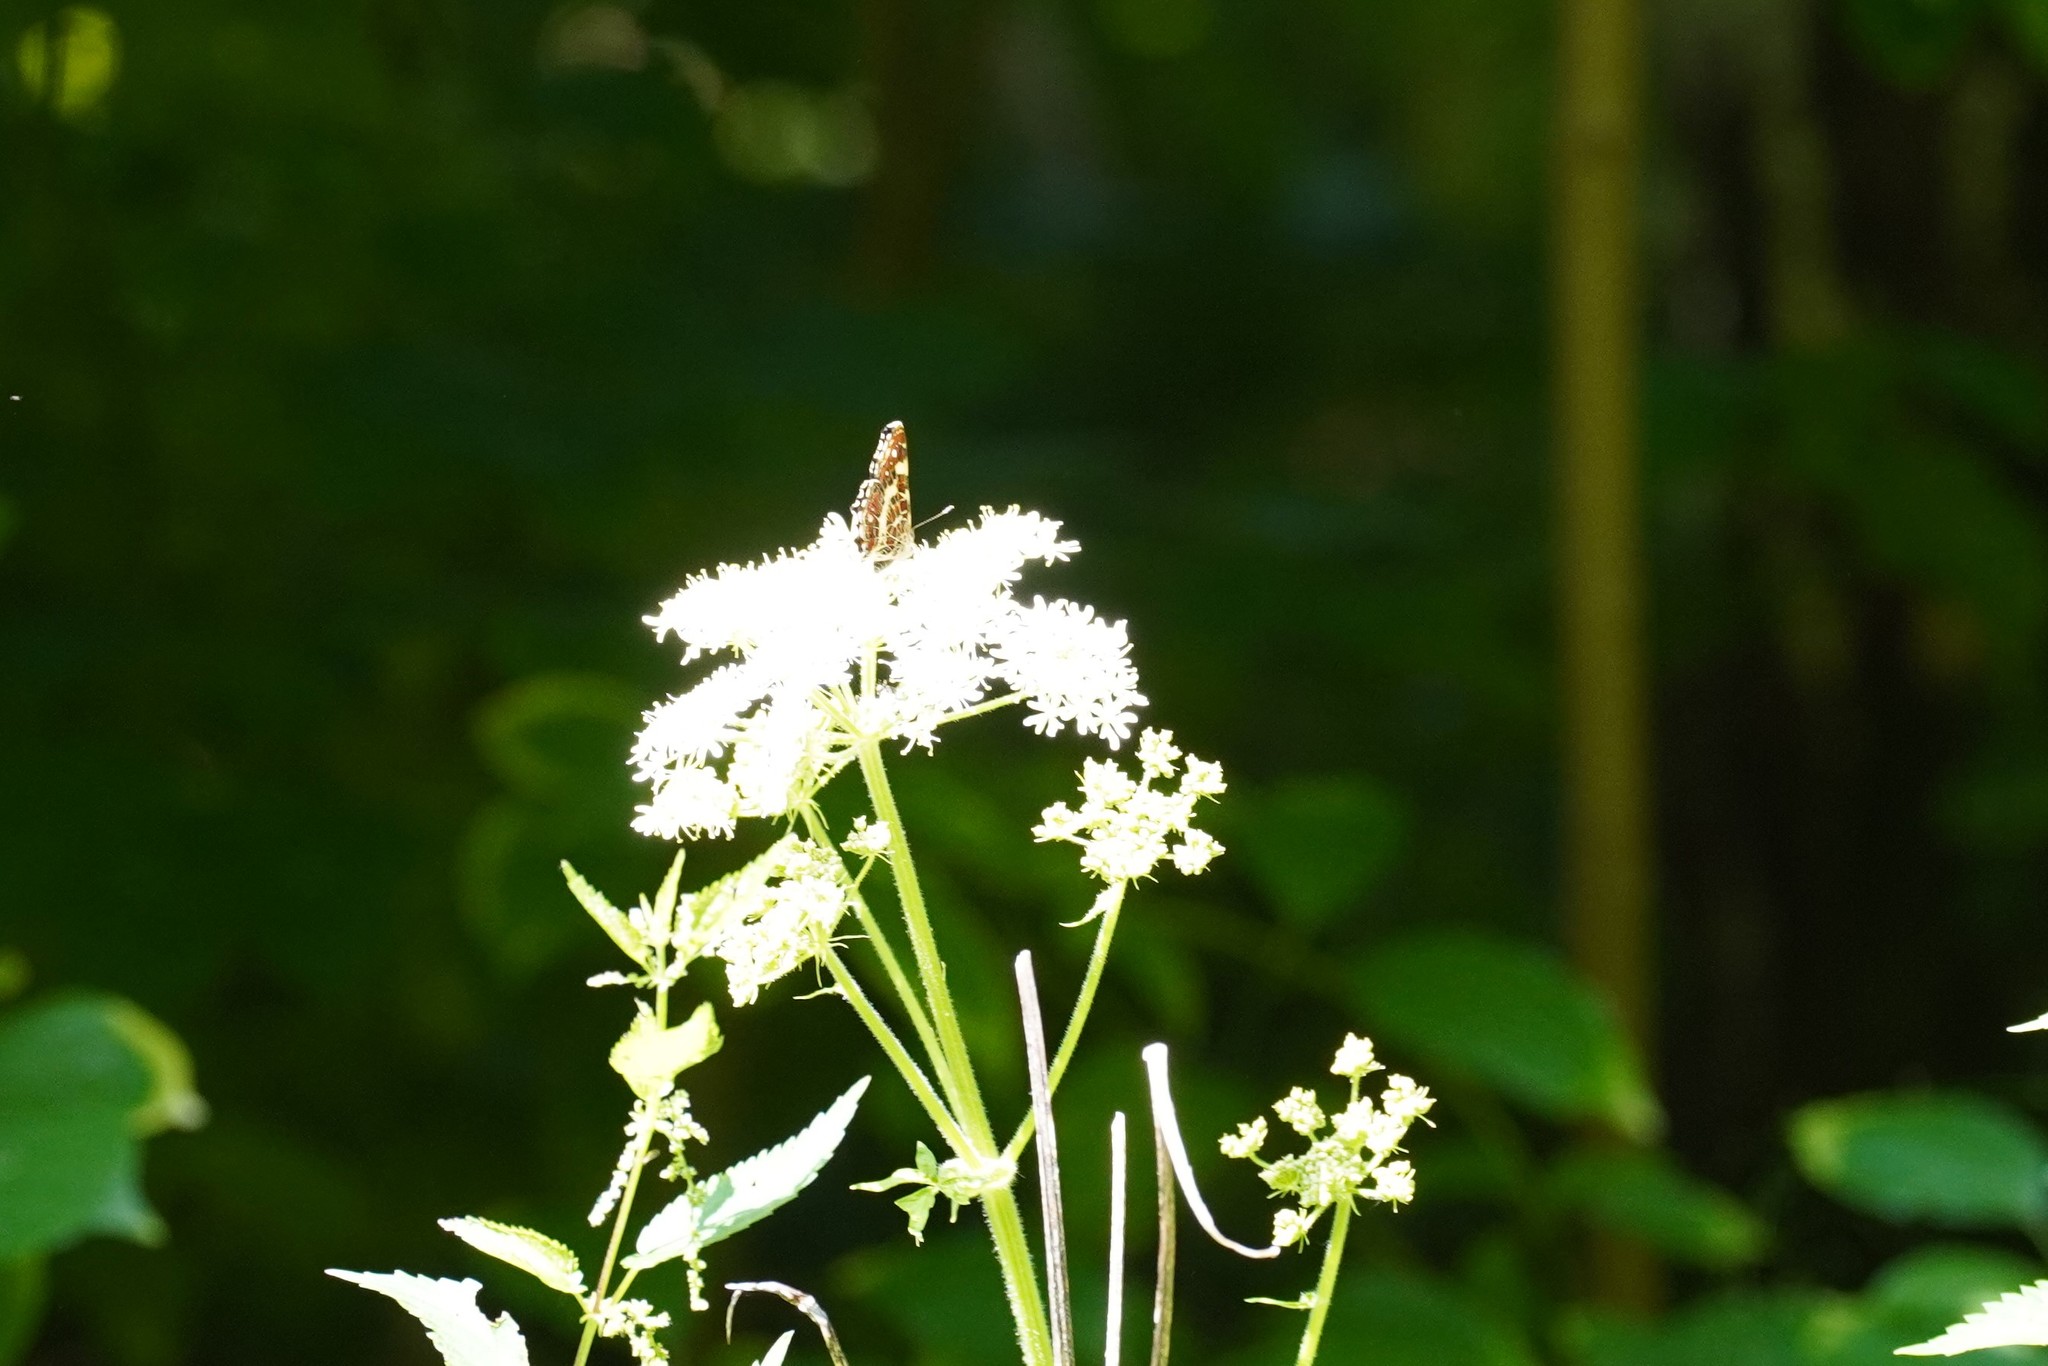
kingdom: Animalia
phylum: Arthropoda
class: Insecta
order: Lepidoptera
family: Nymphalidae
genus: Araschnia
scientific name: Araschnia levana
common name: Map butterfly
